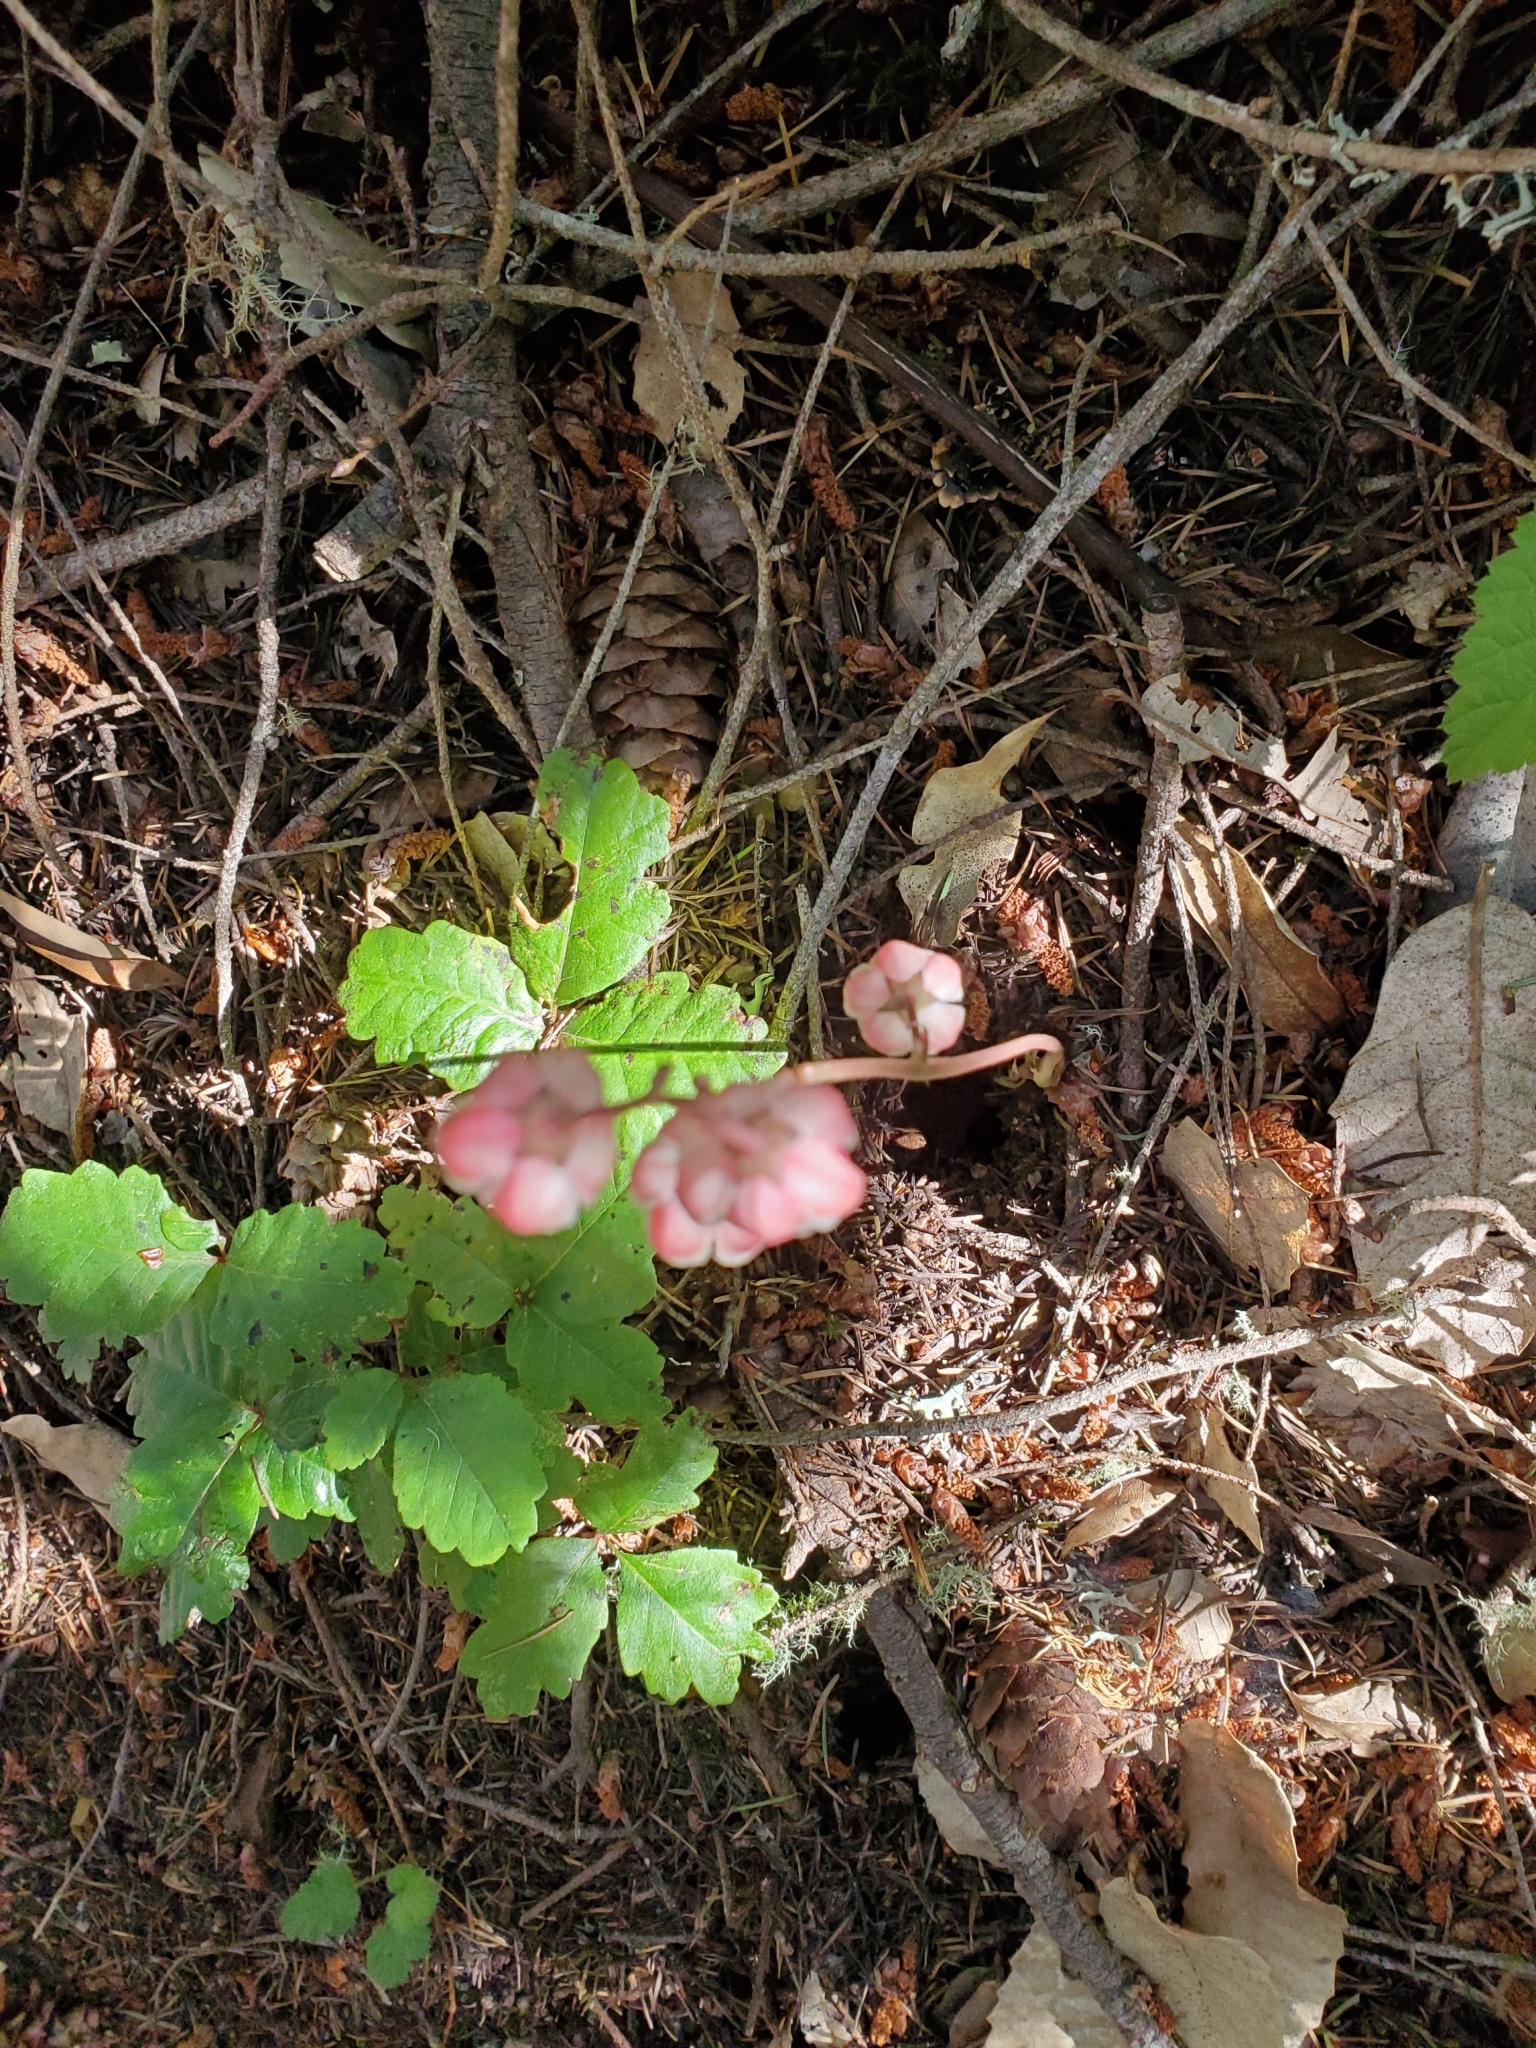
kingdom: Plantae
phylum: Tracheophyta
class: Magnoliopsida
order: Ericales
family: Ericaceae
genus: Pyrola
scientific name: Pyrola aphylla
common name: Leafless wintergreen
